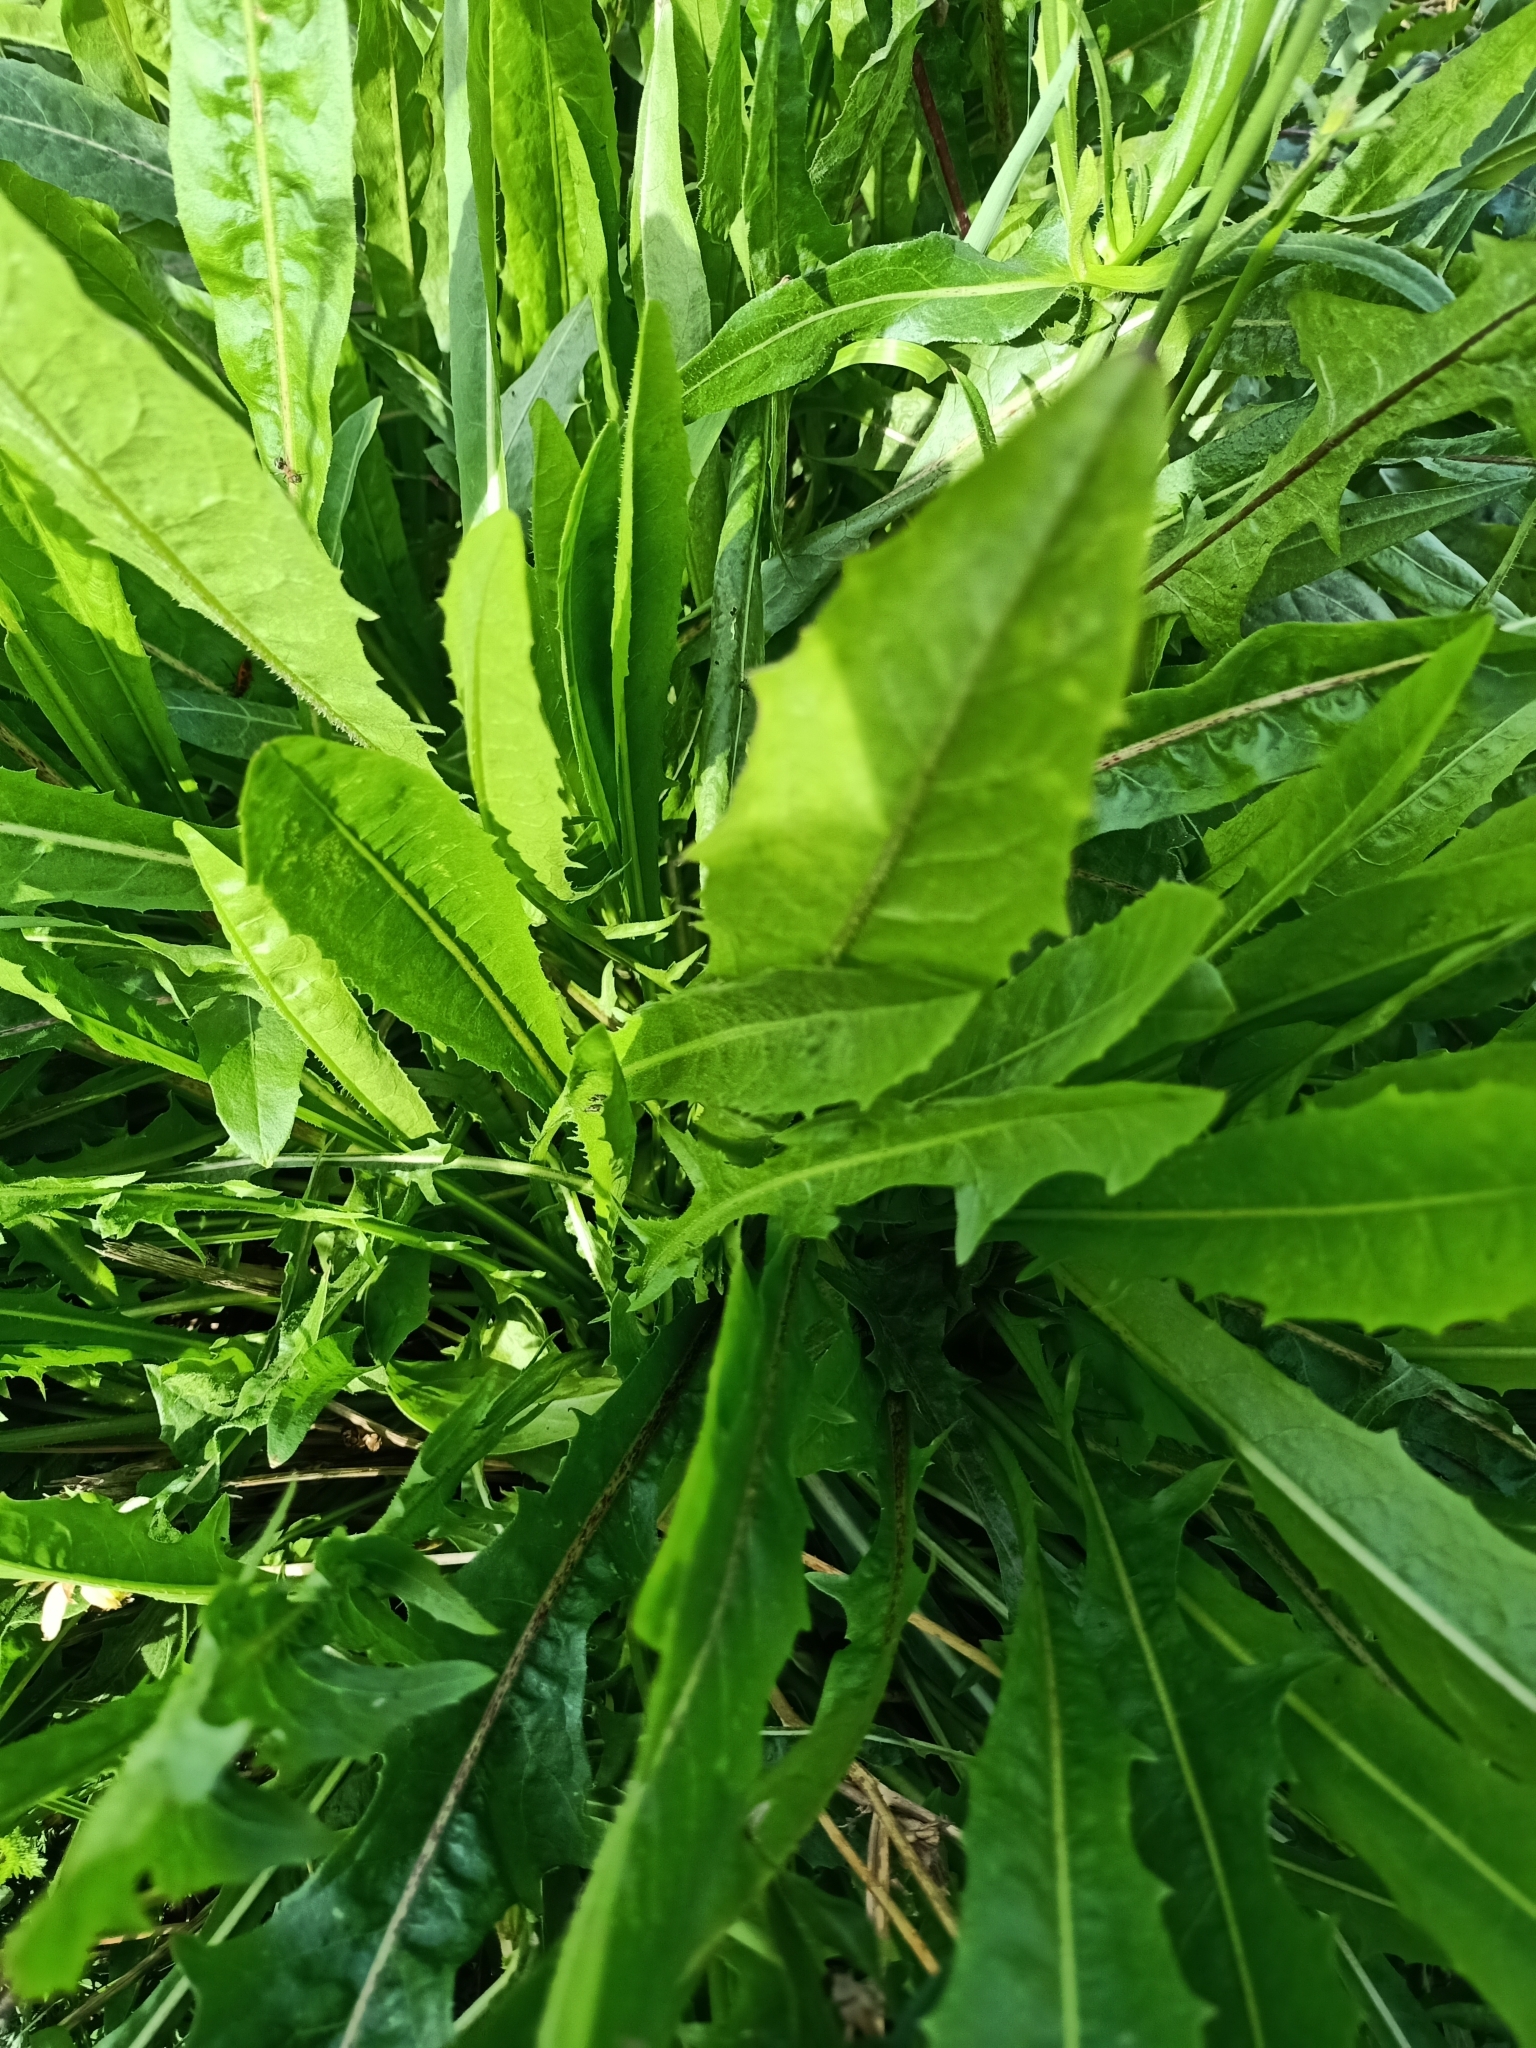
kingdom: Plantae
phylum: Tracheophyta
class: Magnoliopsida
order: Asterales
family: Asteraceae
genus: Cichorium
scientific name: Cichorium intybus
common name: Chicory
